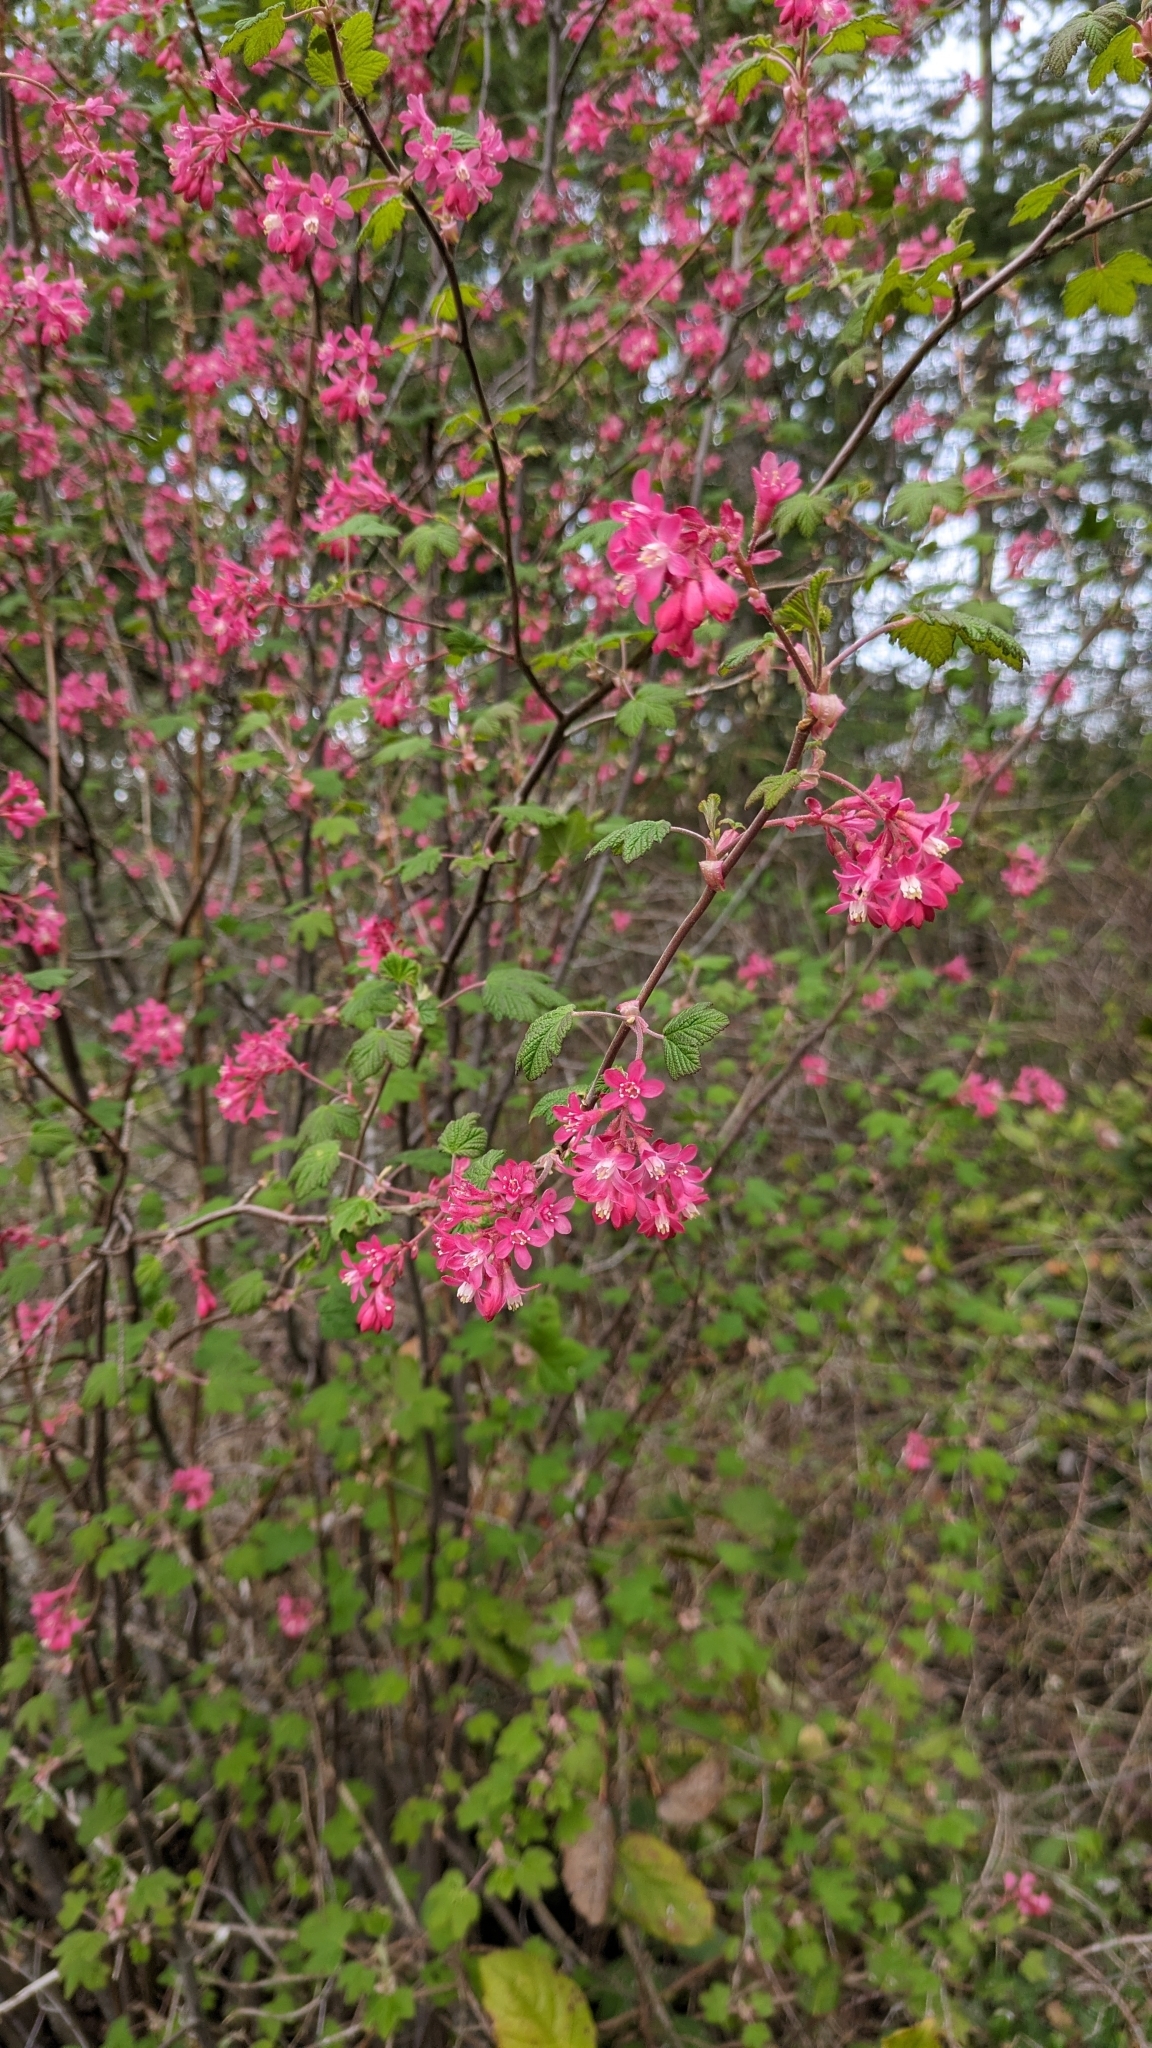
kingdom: Plantae
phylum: Tracheophyta
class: Magnoliopsida
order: Saxifragales
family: Grossulariaceae
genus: Ribes
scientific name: Ribes sanguineum
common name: Flowering currant
